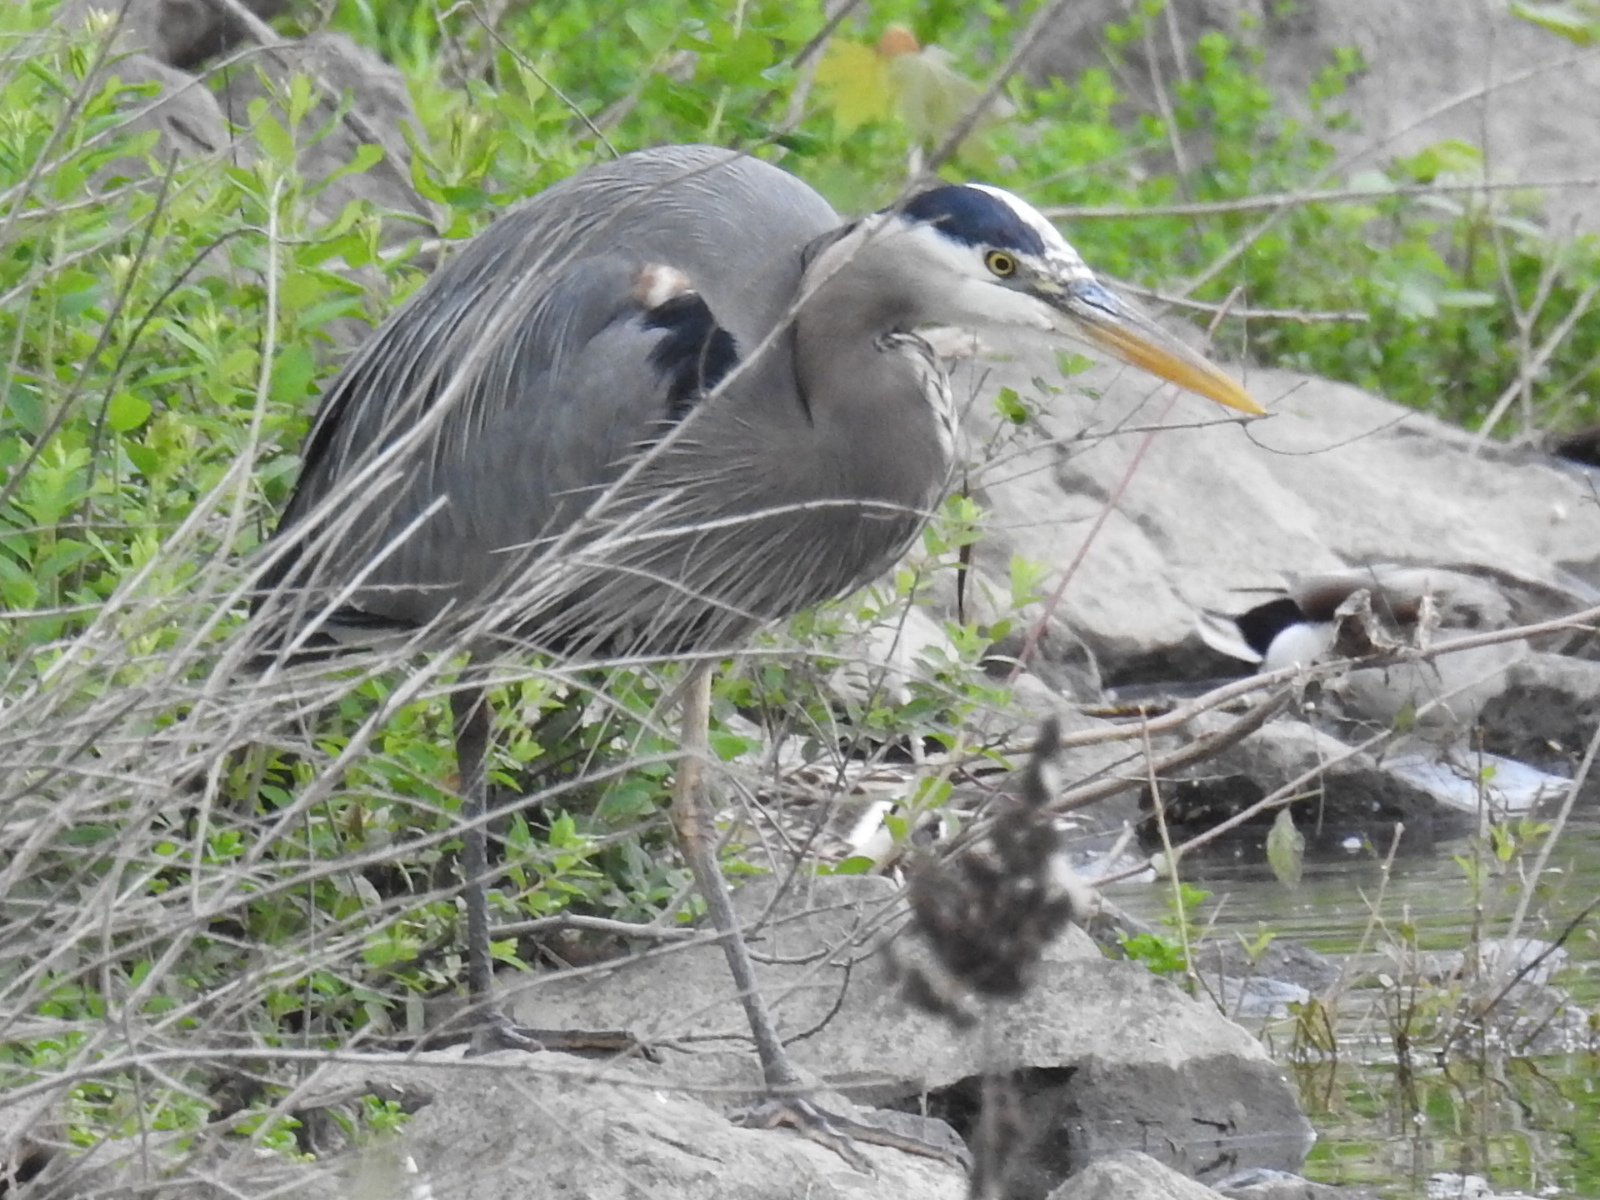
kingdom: Animalia
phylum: Chordata
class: Aves
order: Pelecaniformes
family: Ardeidae
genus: Ardea
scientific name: Ardea herodias
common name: Great blue heron
